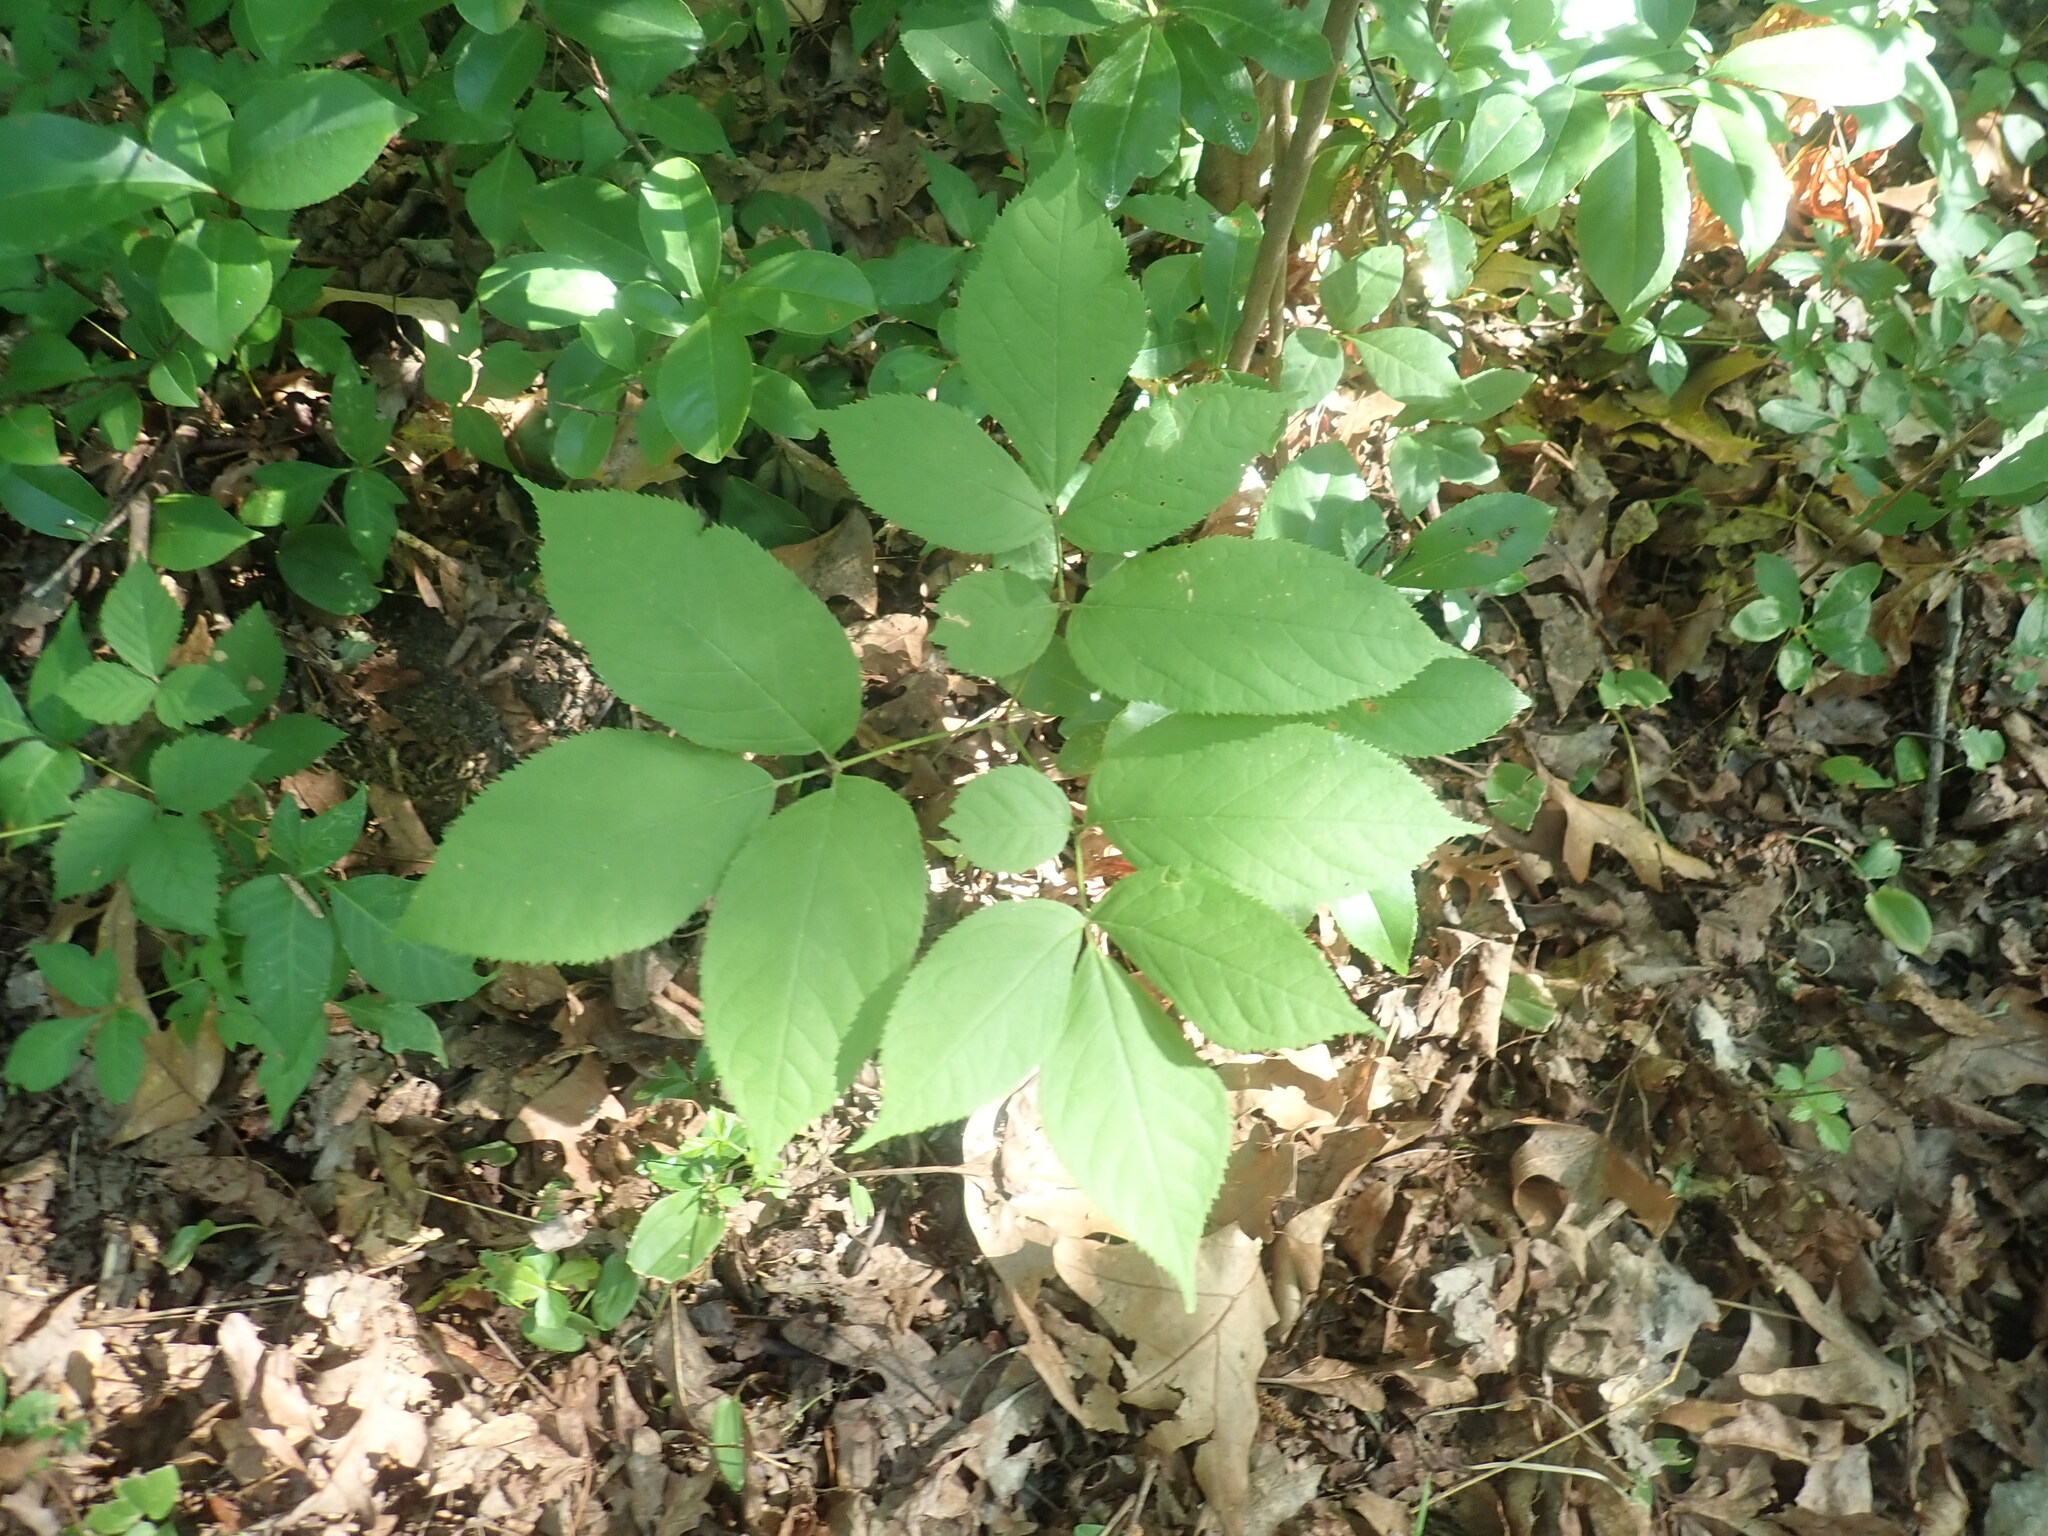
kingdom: Plantae
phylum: Tracheophyta
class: Magnoliopsida
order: Apiales
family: Araliaceae
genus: Aralia
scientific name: Aralia nudicaulis
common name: Wild sarsaparilla
